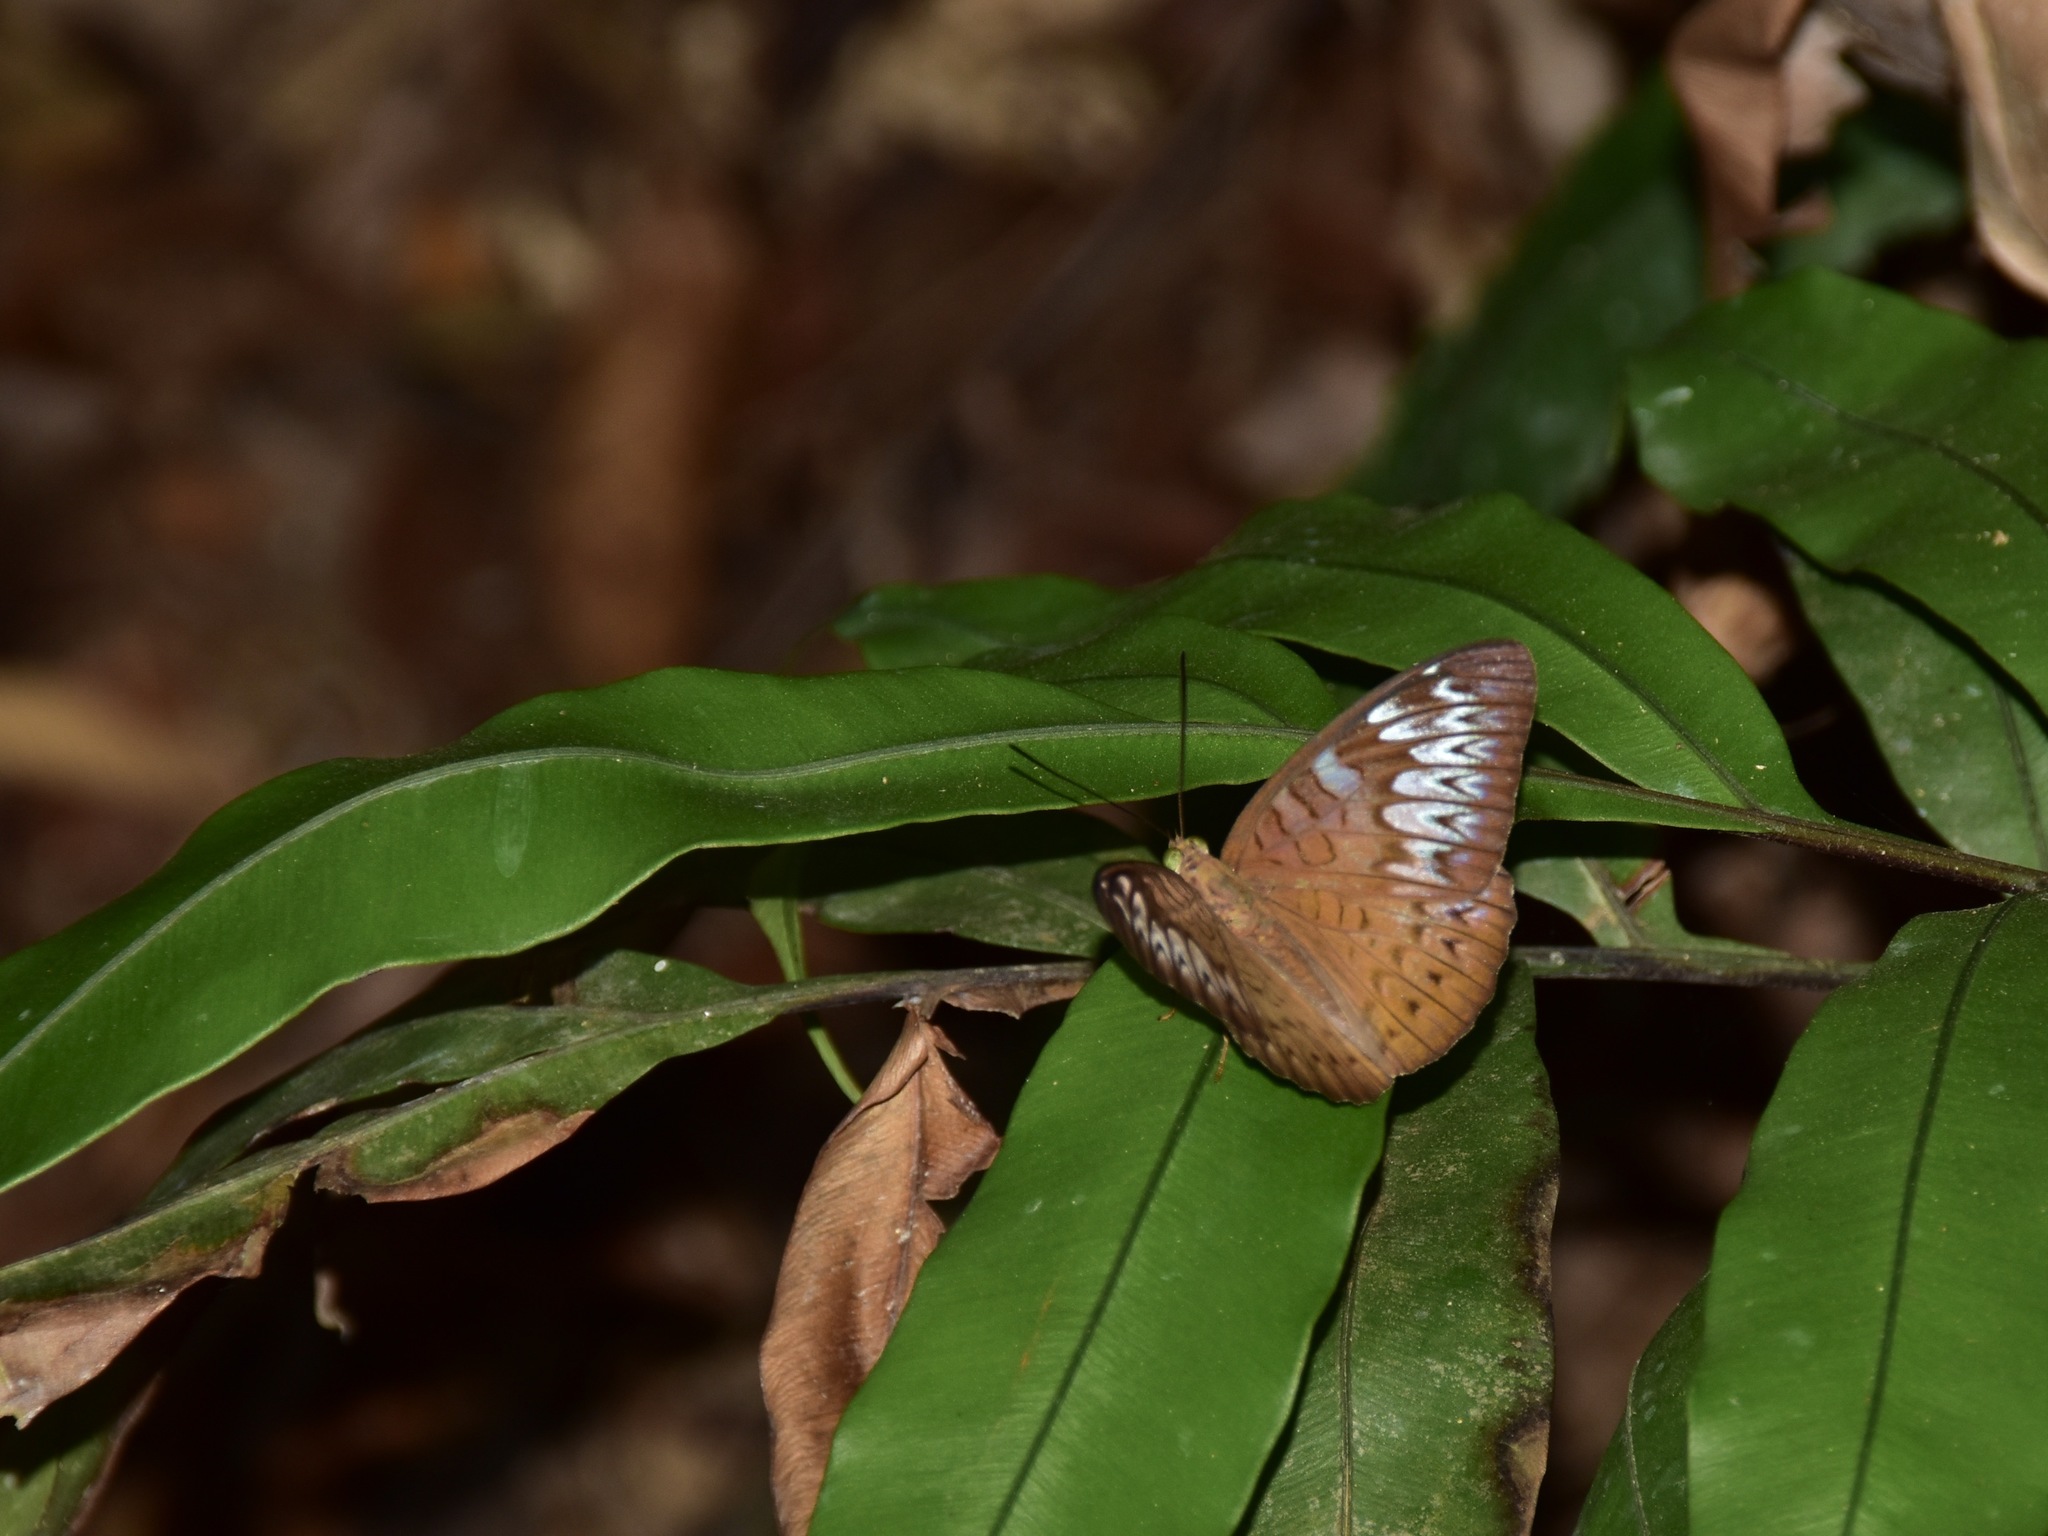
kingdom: Animalia
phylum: Arthropoda
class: Insecta
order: Lepidoptera
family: Nymphalidae
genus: Tanaecia
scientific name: Tanaecia pelea
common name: Malay viscount
